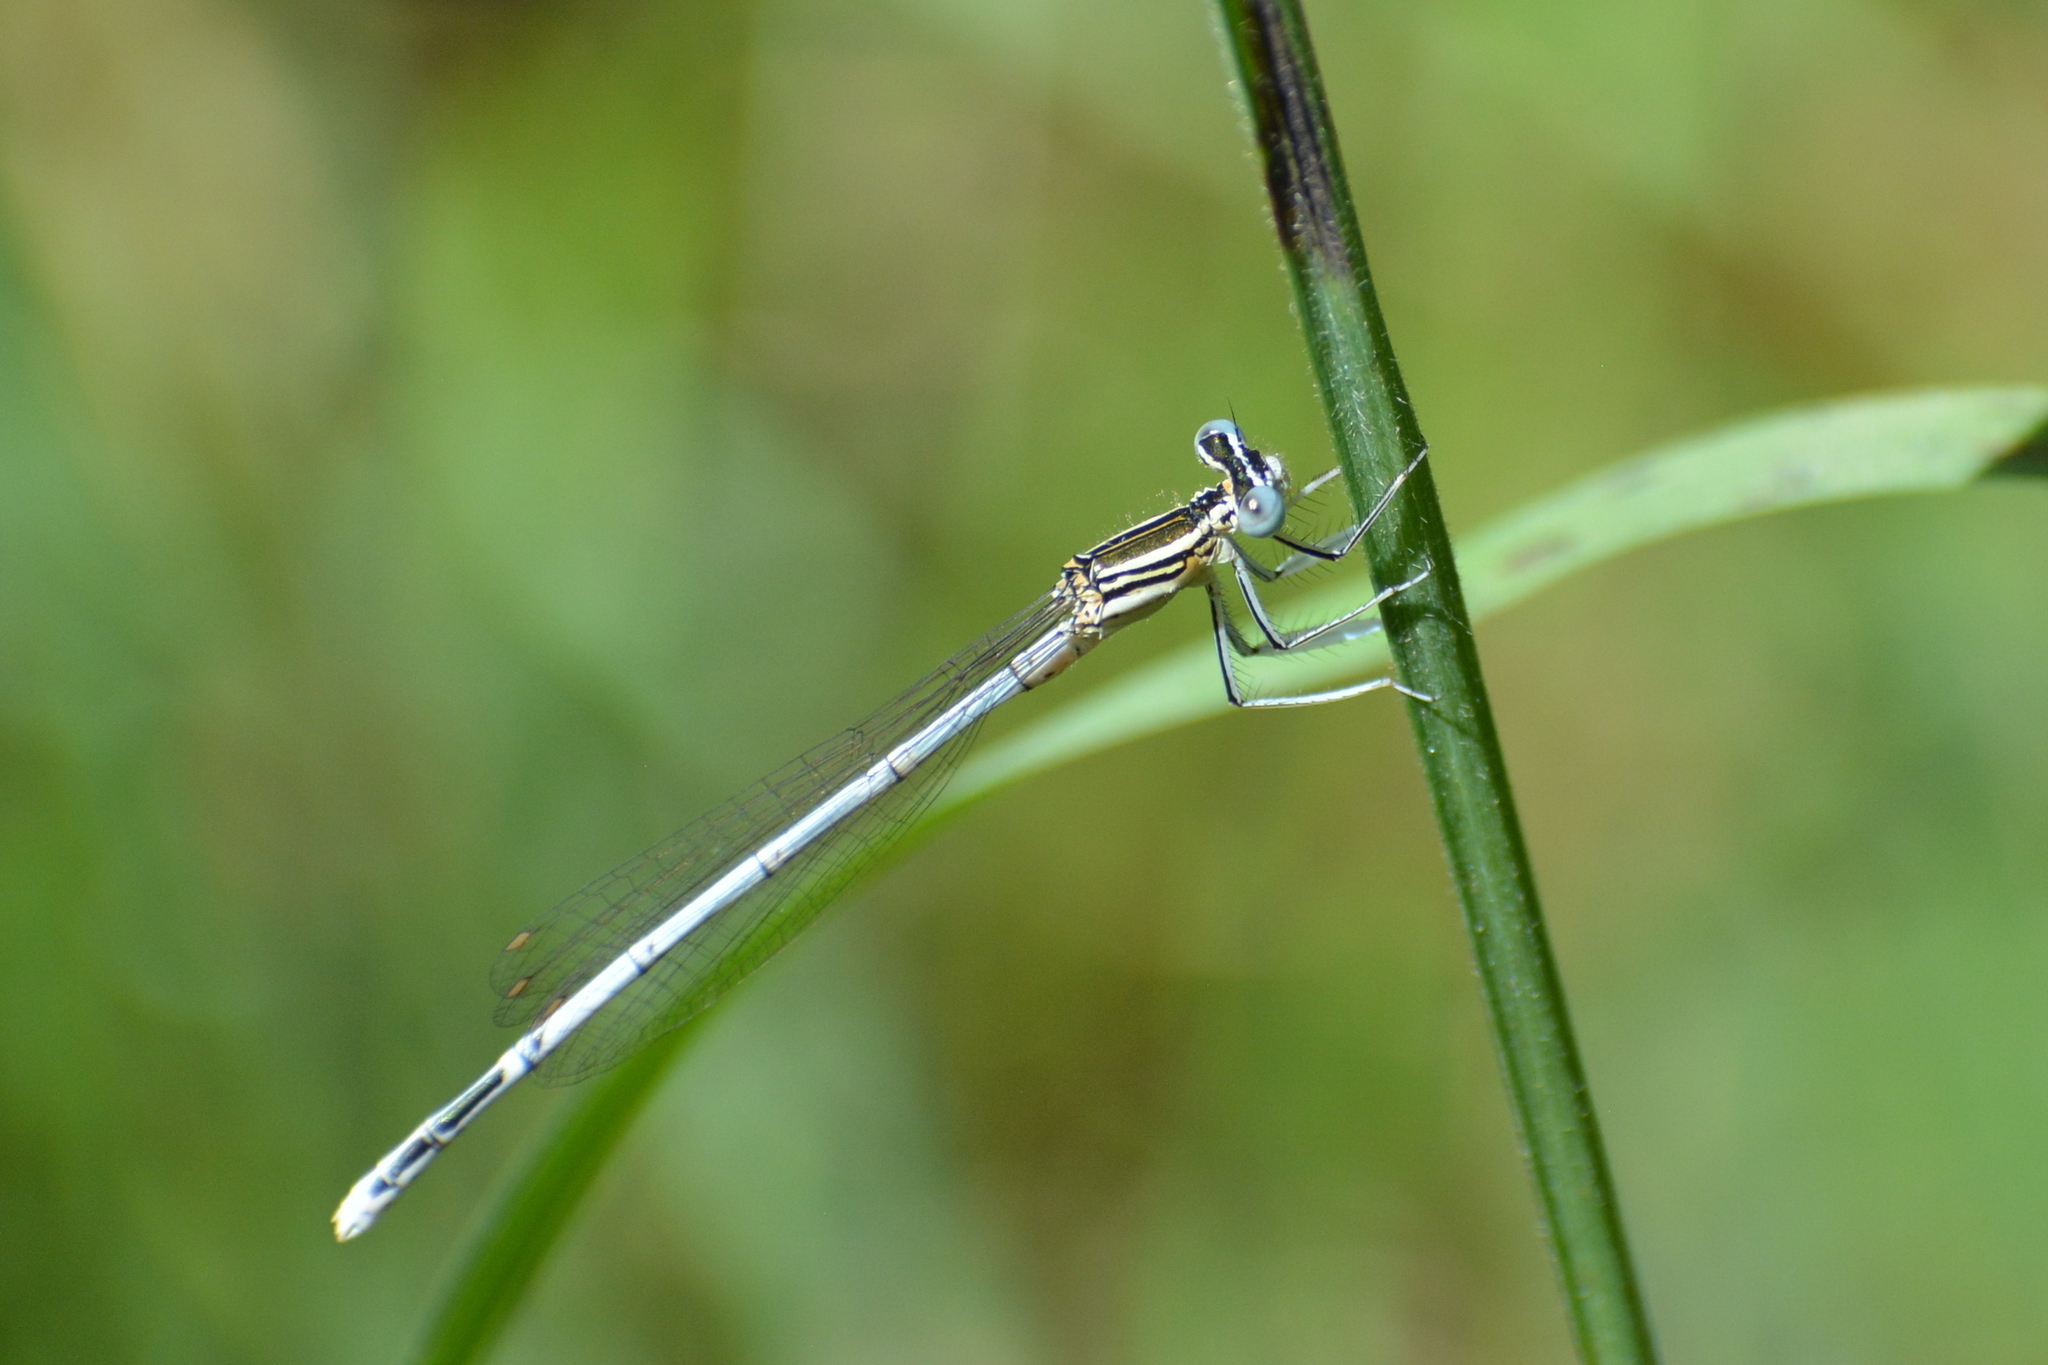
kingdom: Animalia
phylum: Arthropoda
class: Insecta
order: Odonata
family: Platycnemididae
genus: Platycnemis
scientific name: Platycnemis pennipes
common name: White-legged damselfly
